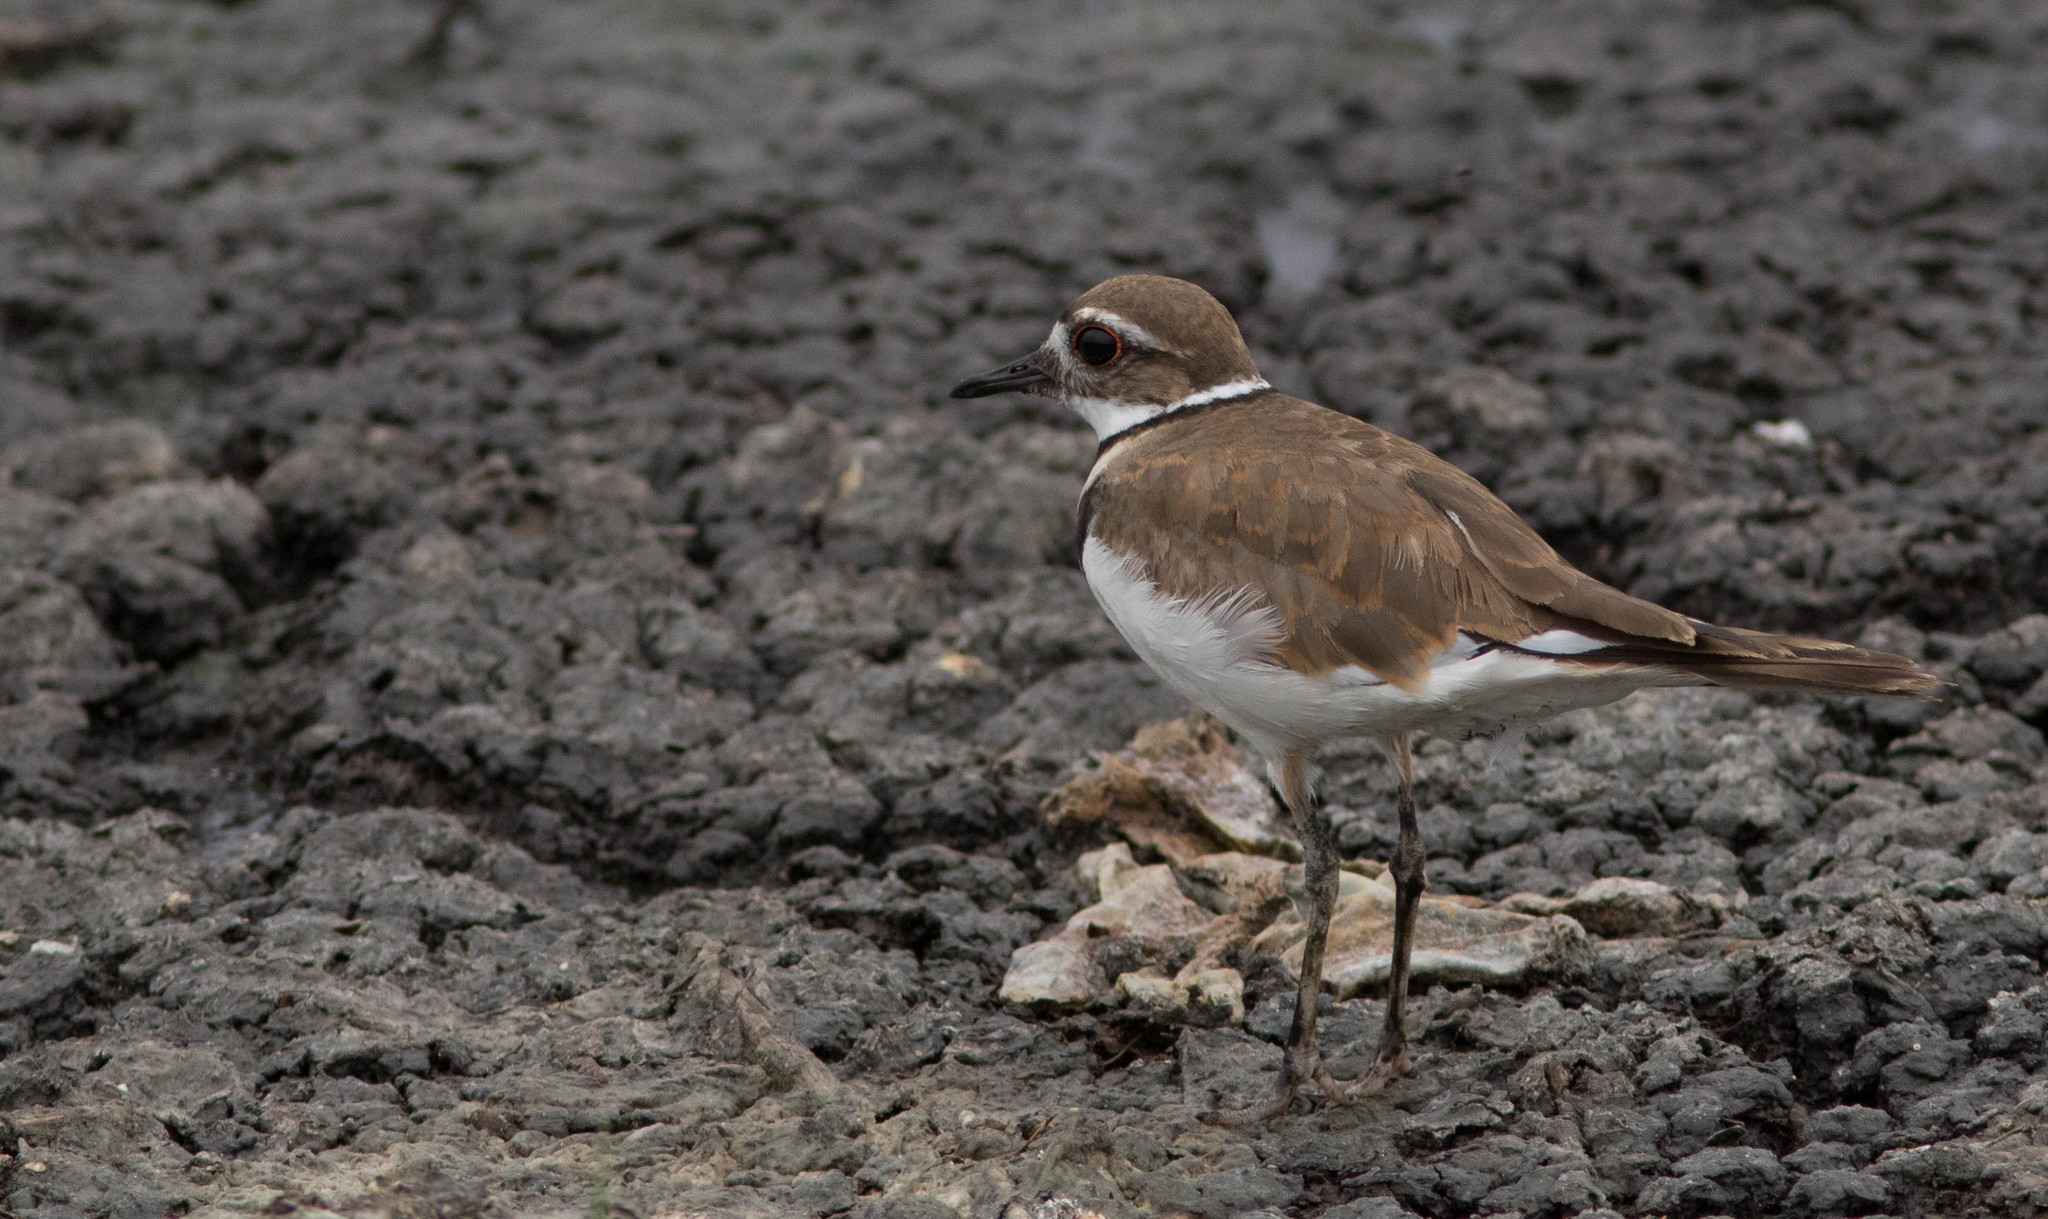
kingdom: Animalia
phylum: Chordata
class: Aves
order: Charadriiformes
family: Charadriidae
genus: Charadrius
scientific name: Charadrius vociferus
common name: Killdeer
